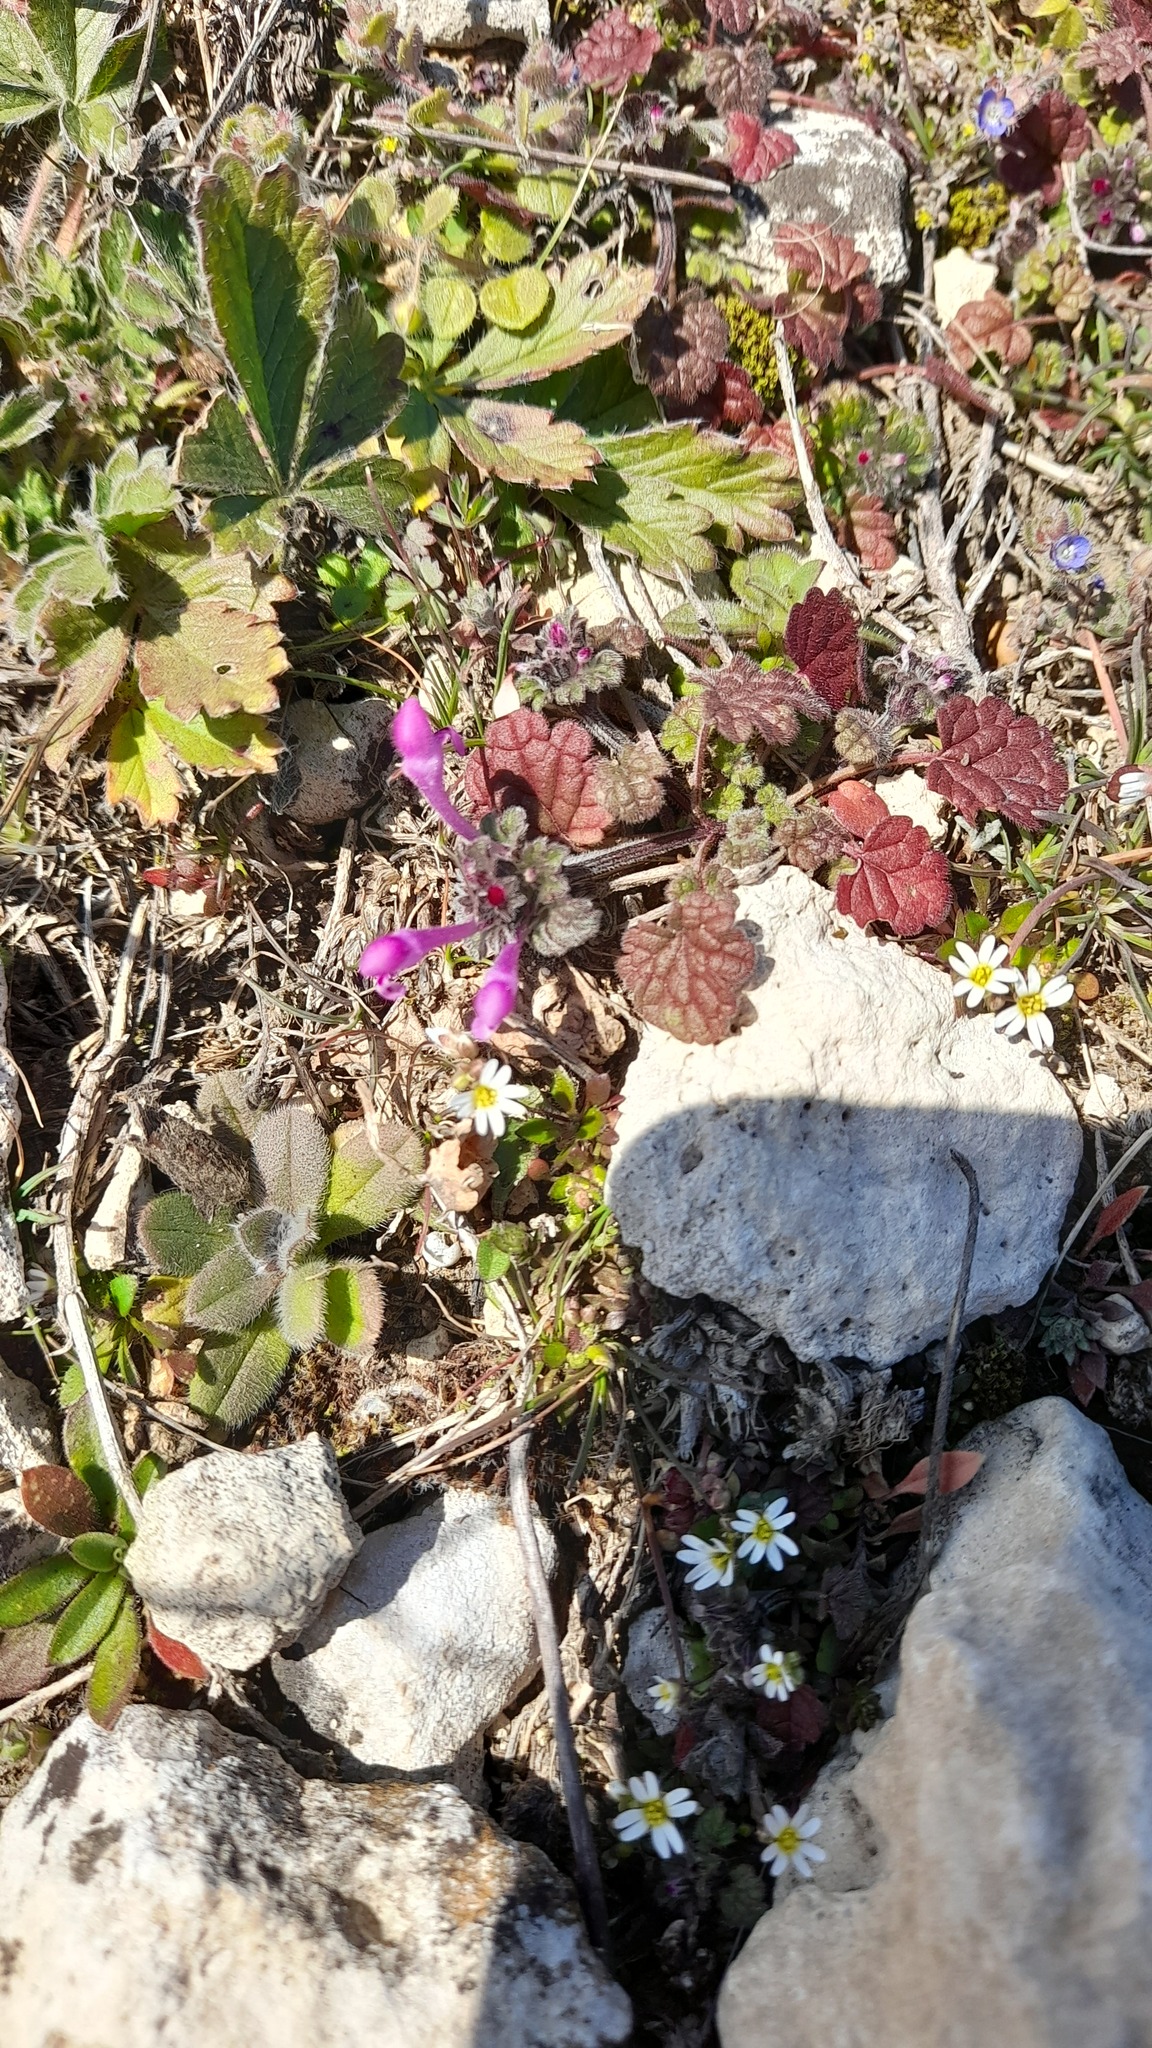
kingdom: Plantae
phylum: Tracheophyta
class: Magnoliopsida
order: Lamiales
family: Lamiaceae
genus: Lamium
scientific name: Lamium amplexicaule
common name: Henbit dead-nettle
